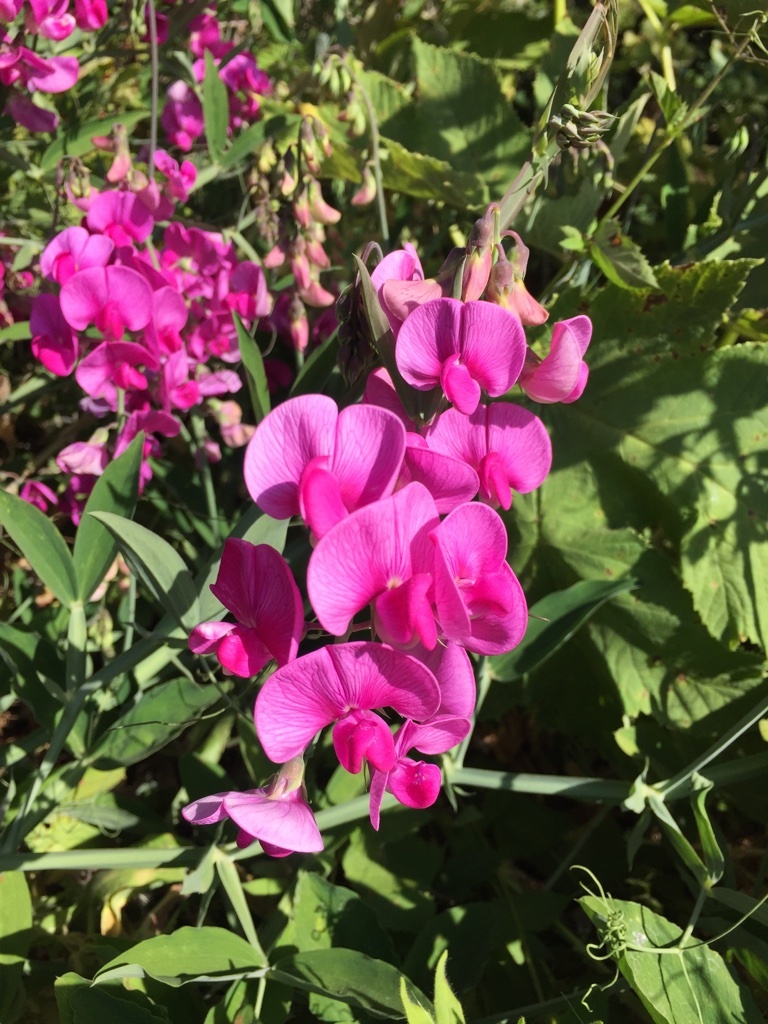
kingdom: Plantae
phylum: Tracheophyta
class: Magnoliopsida
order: Fabales
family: Fabaceae
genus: Lathyrus
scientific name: Lathyrus latifolius
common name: Perennial pea
